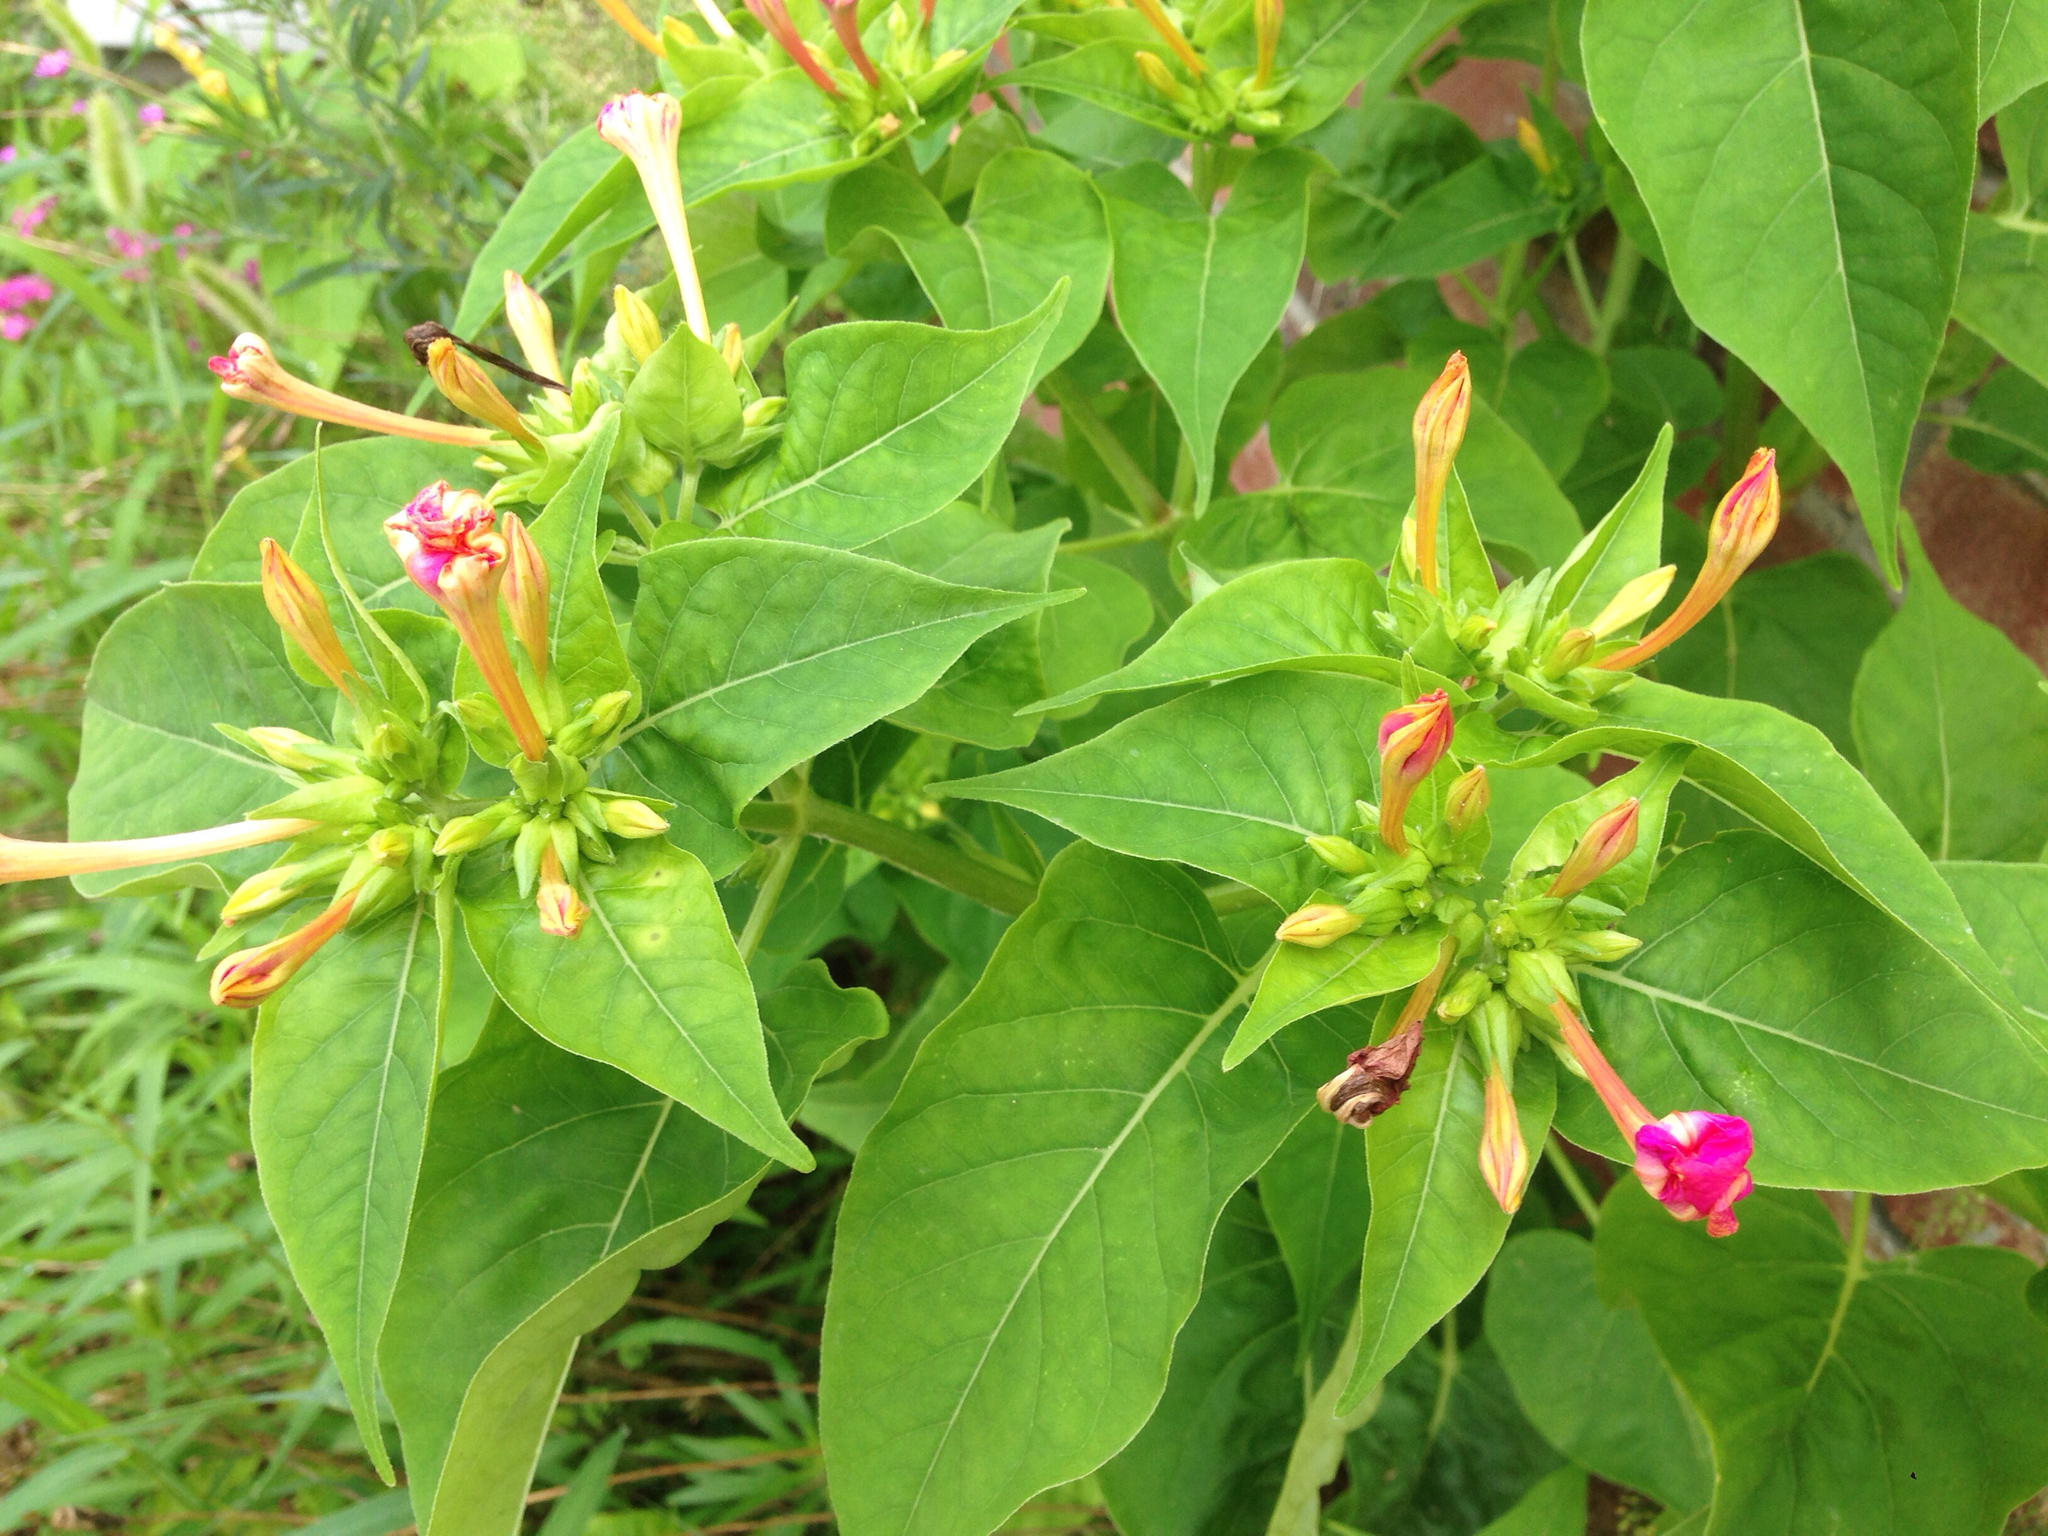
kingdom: Plantae
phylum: Tracheophyta
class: Magnoliopsida
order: Caryophyllales
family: Nyctaginaceae
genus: Mirabilis
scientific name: Mirabilis jalapa
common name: Marvel-of-peru
